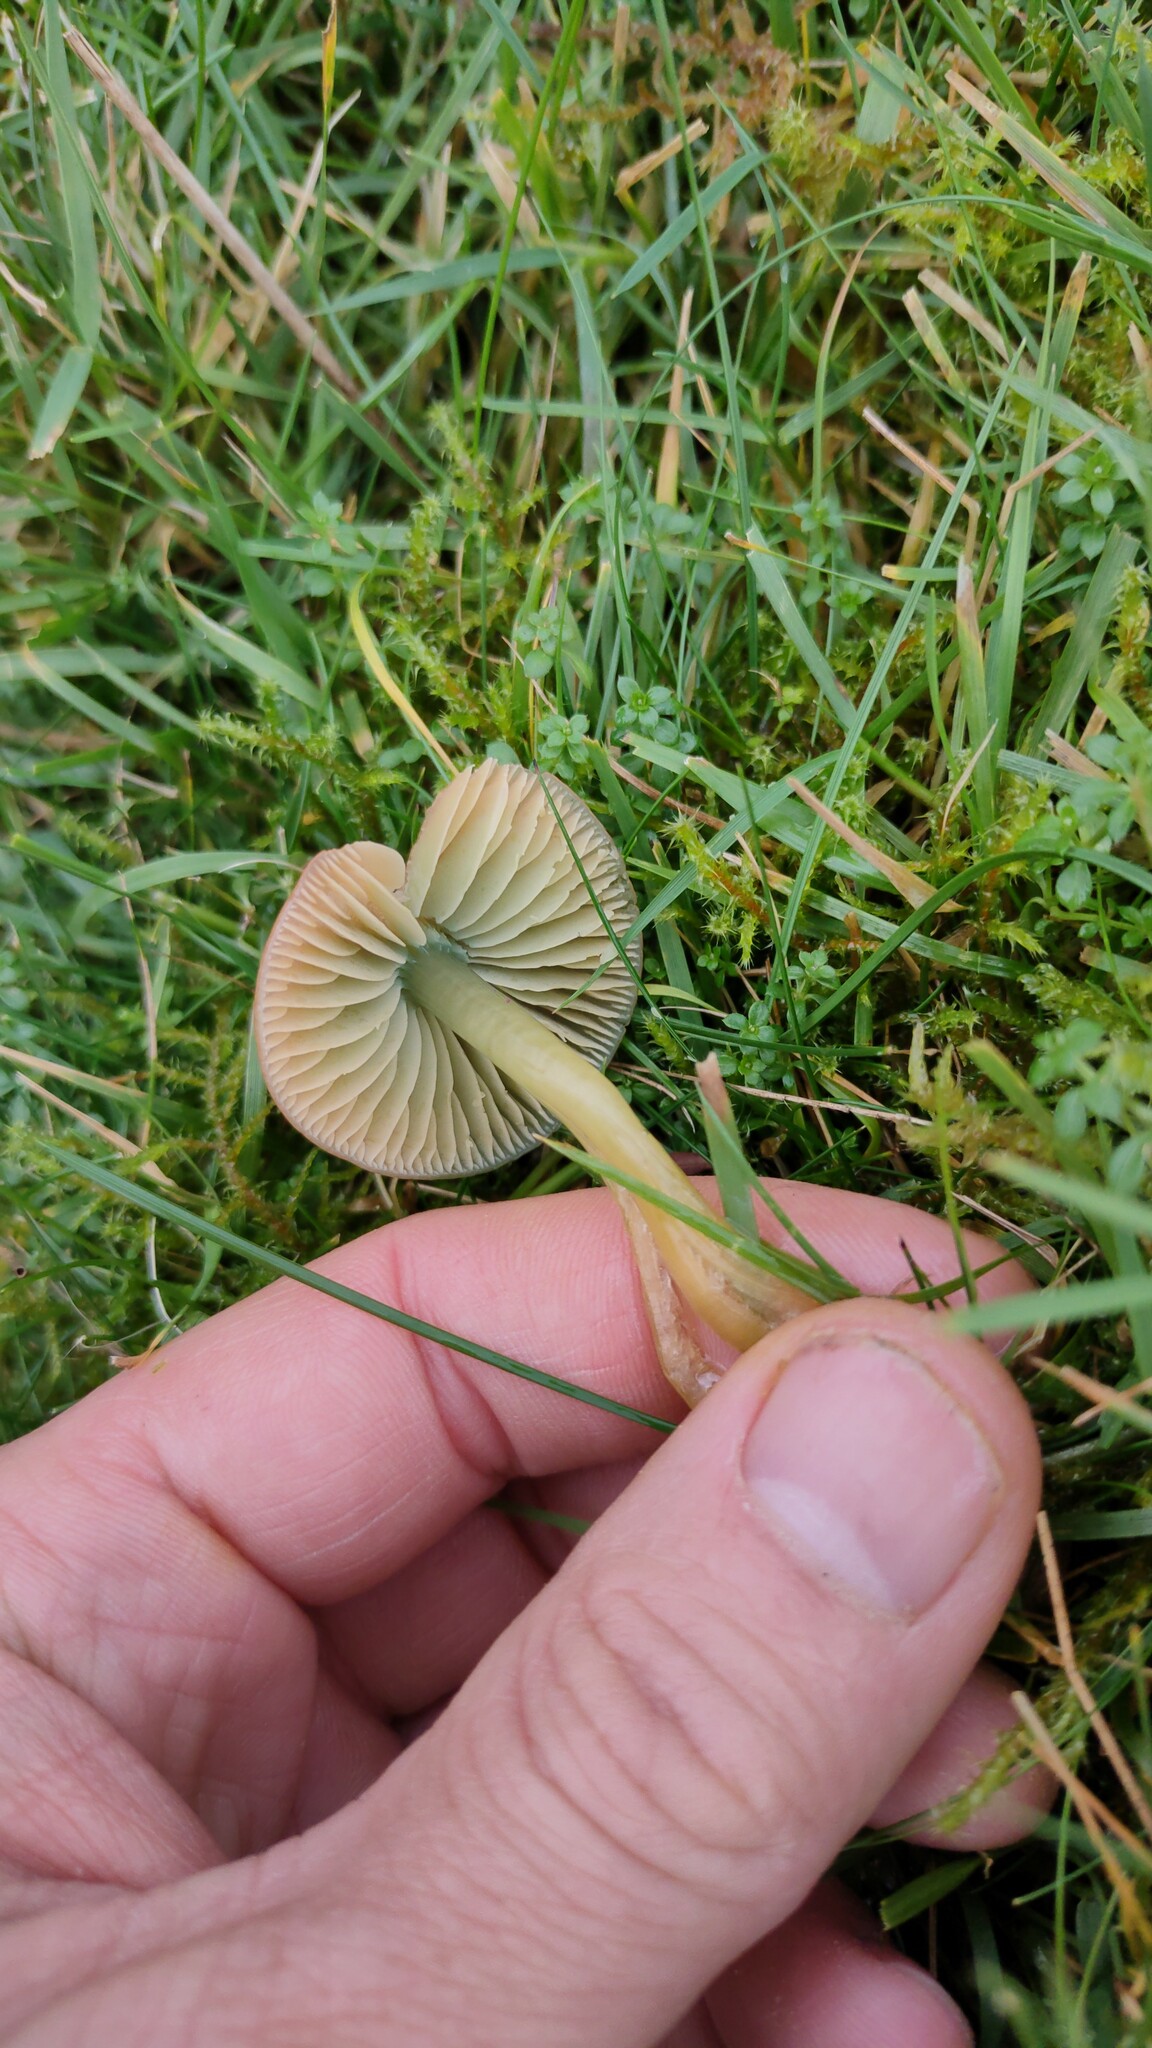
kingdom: Fungi
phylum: Basidiomycota
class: Agaricomycetes
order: Agaricales
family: Hygrophoraceae
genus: Gliophorus
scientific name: Gliophorus psittacinus
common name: Parrot wax-cap
